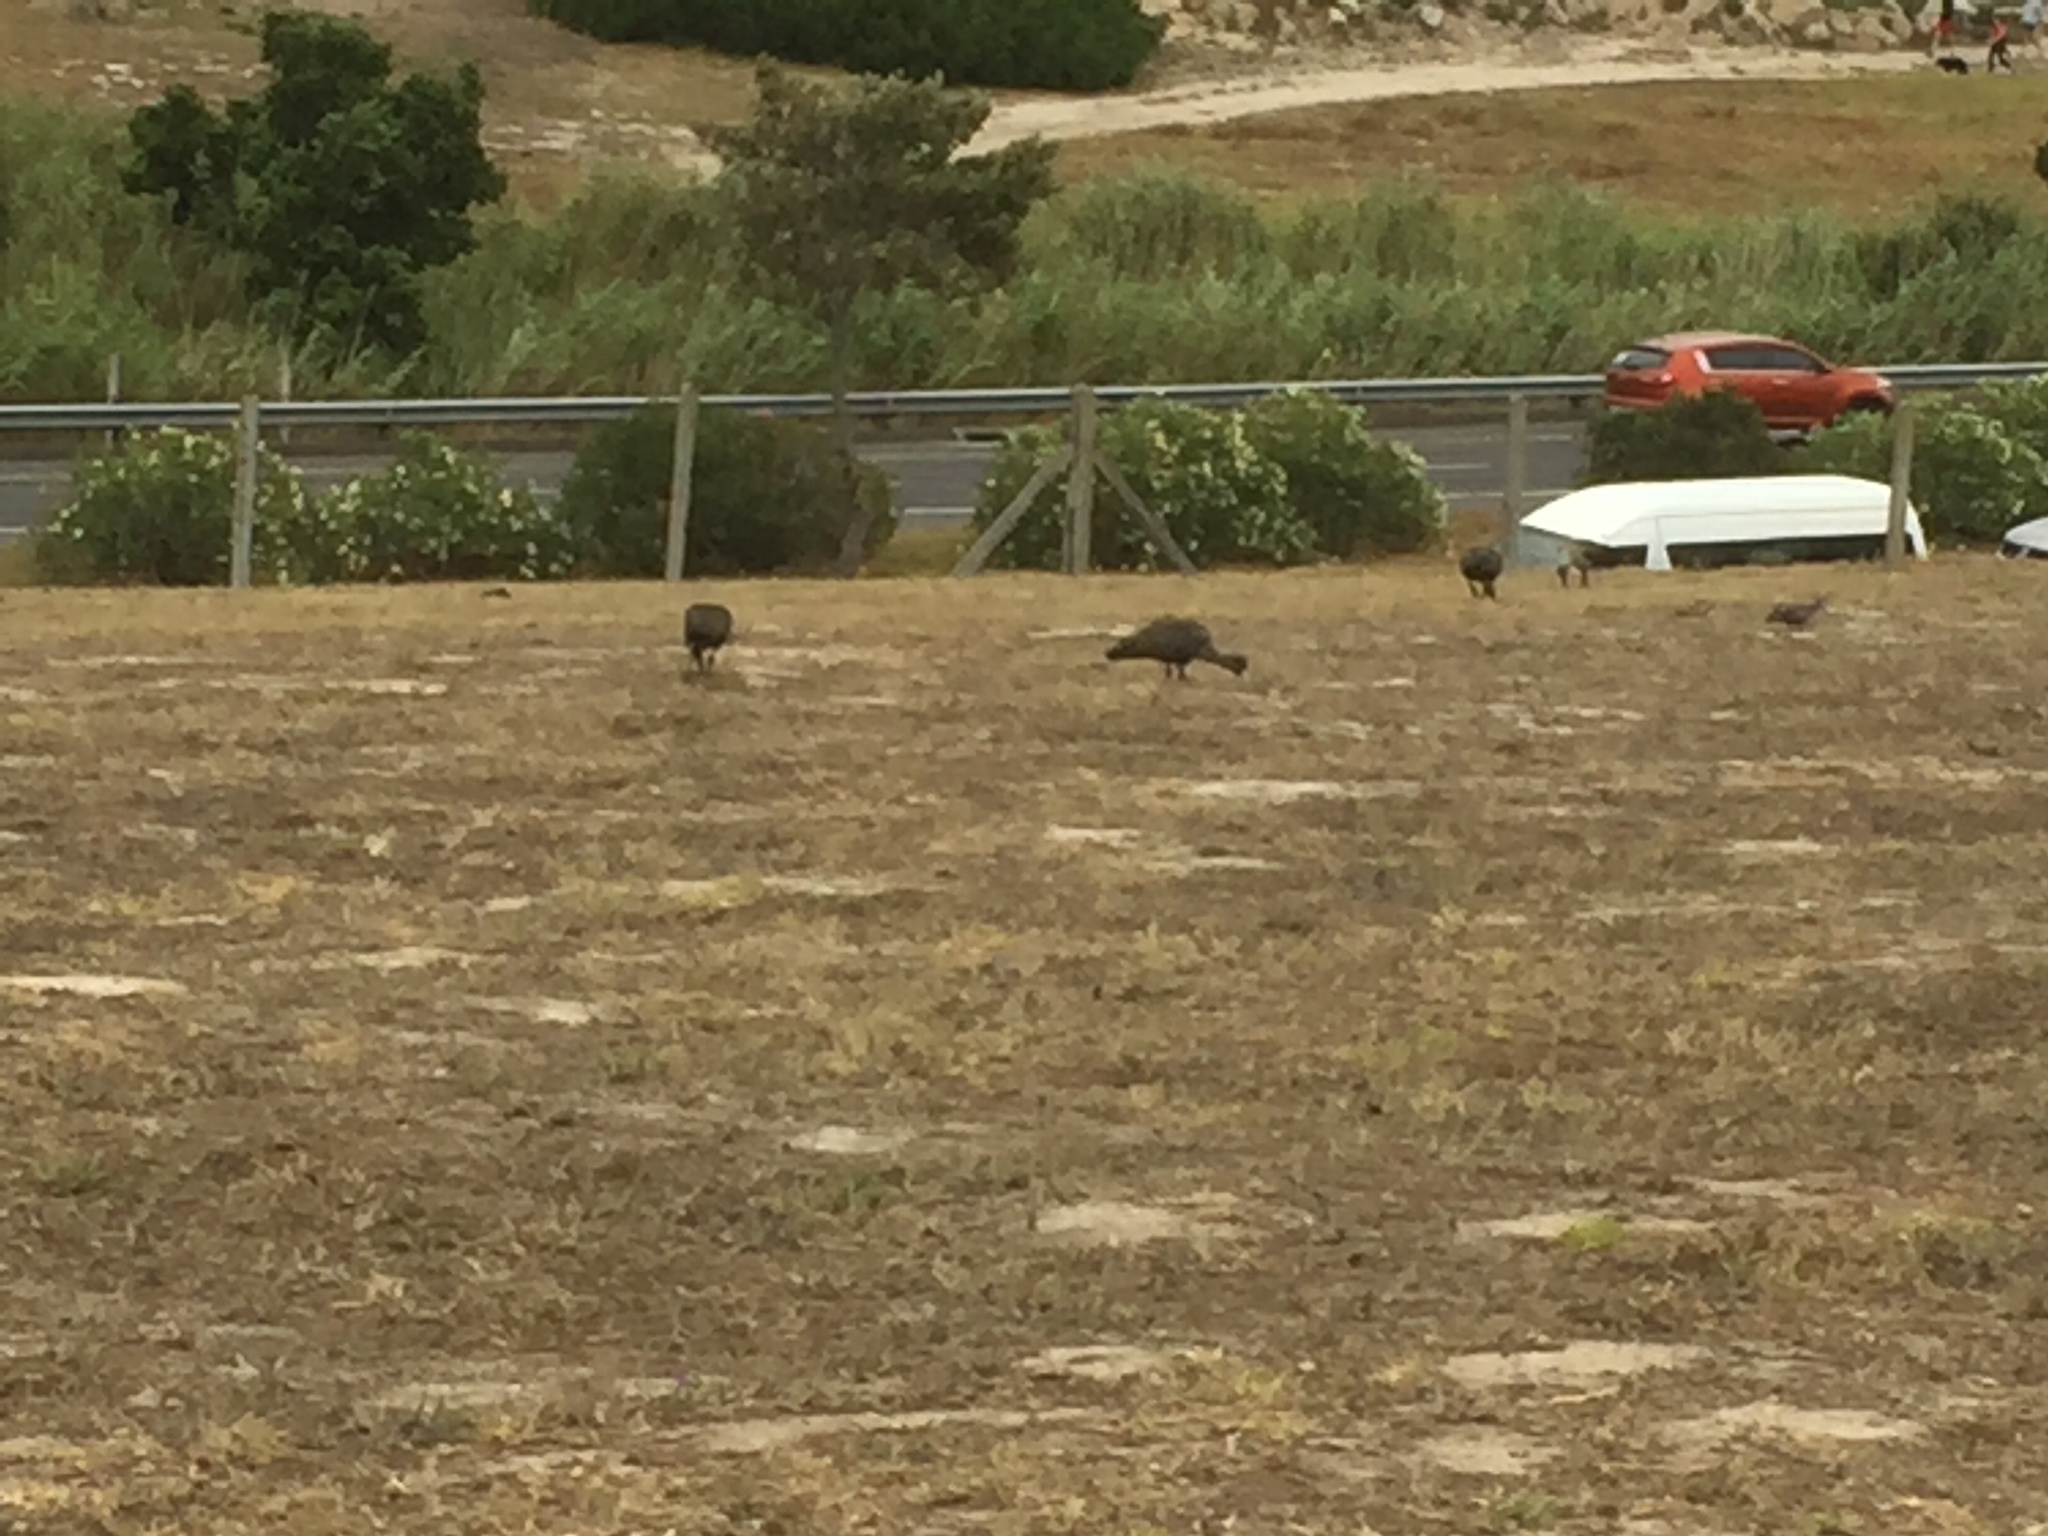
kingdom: Animalia
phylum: Chordata
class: Aves
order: Pelecaniformes
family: Threskiornithidae
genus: Bostrychia
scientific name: Bostrychia hagedash
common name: Hadada ibis
